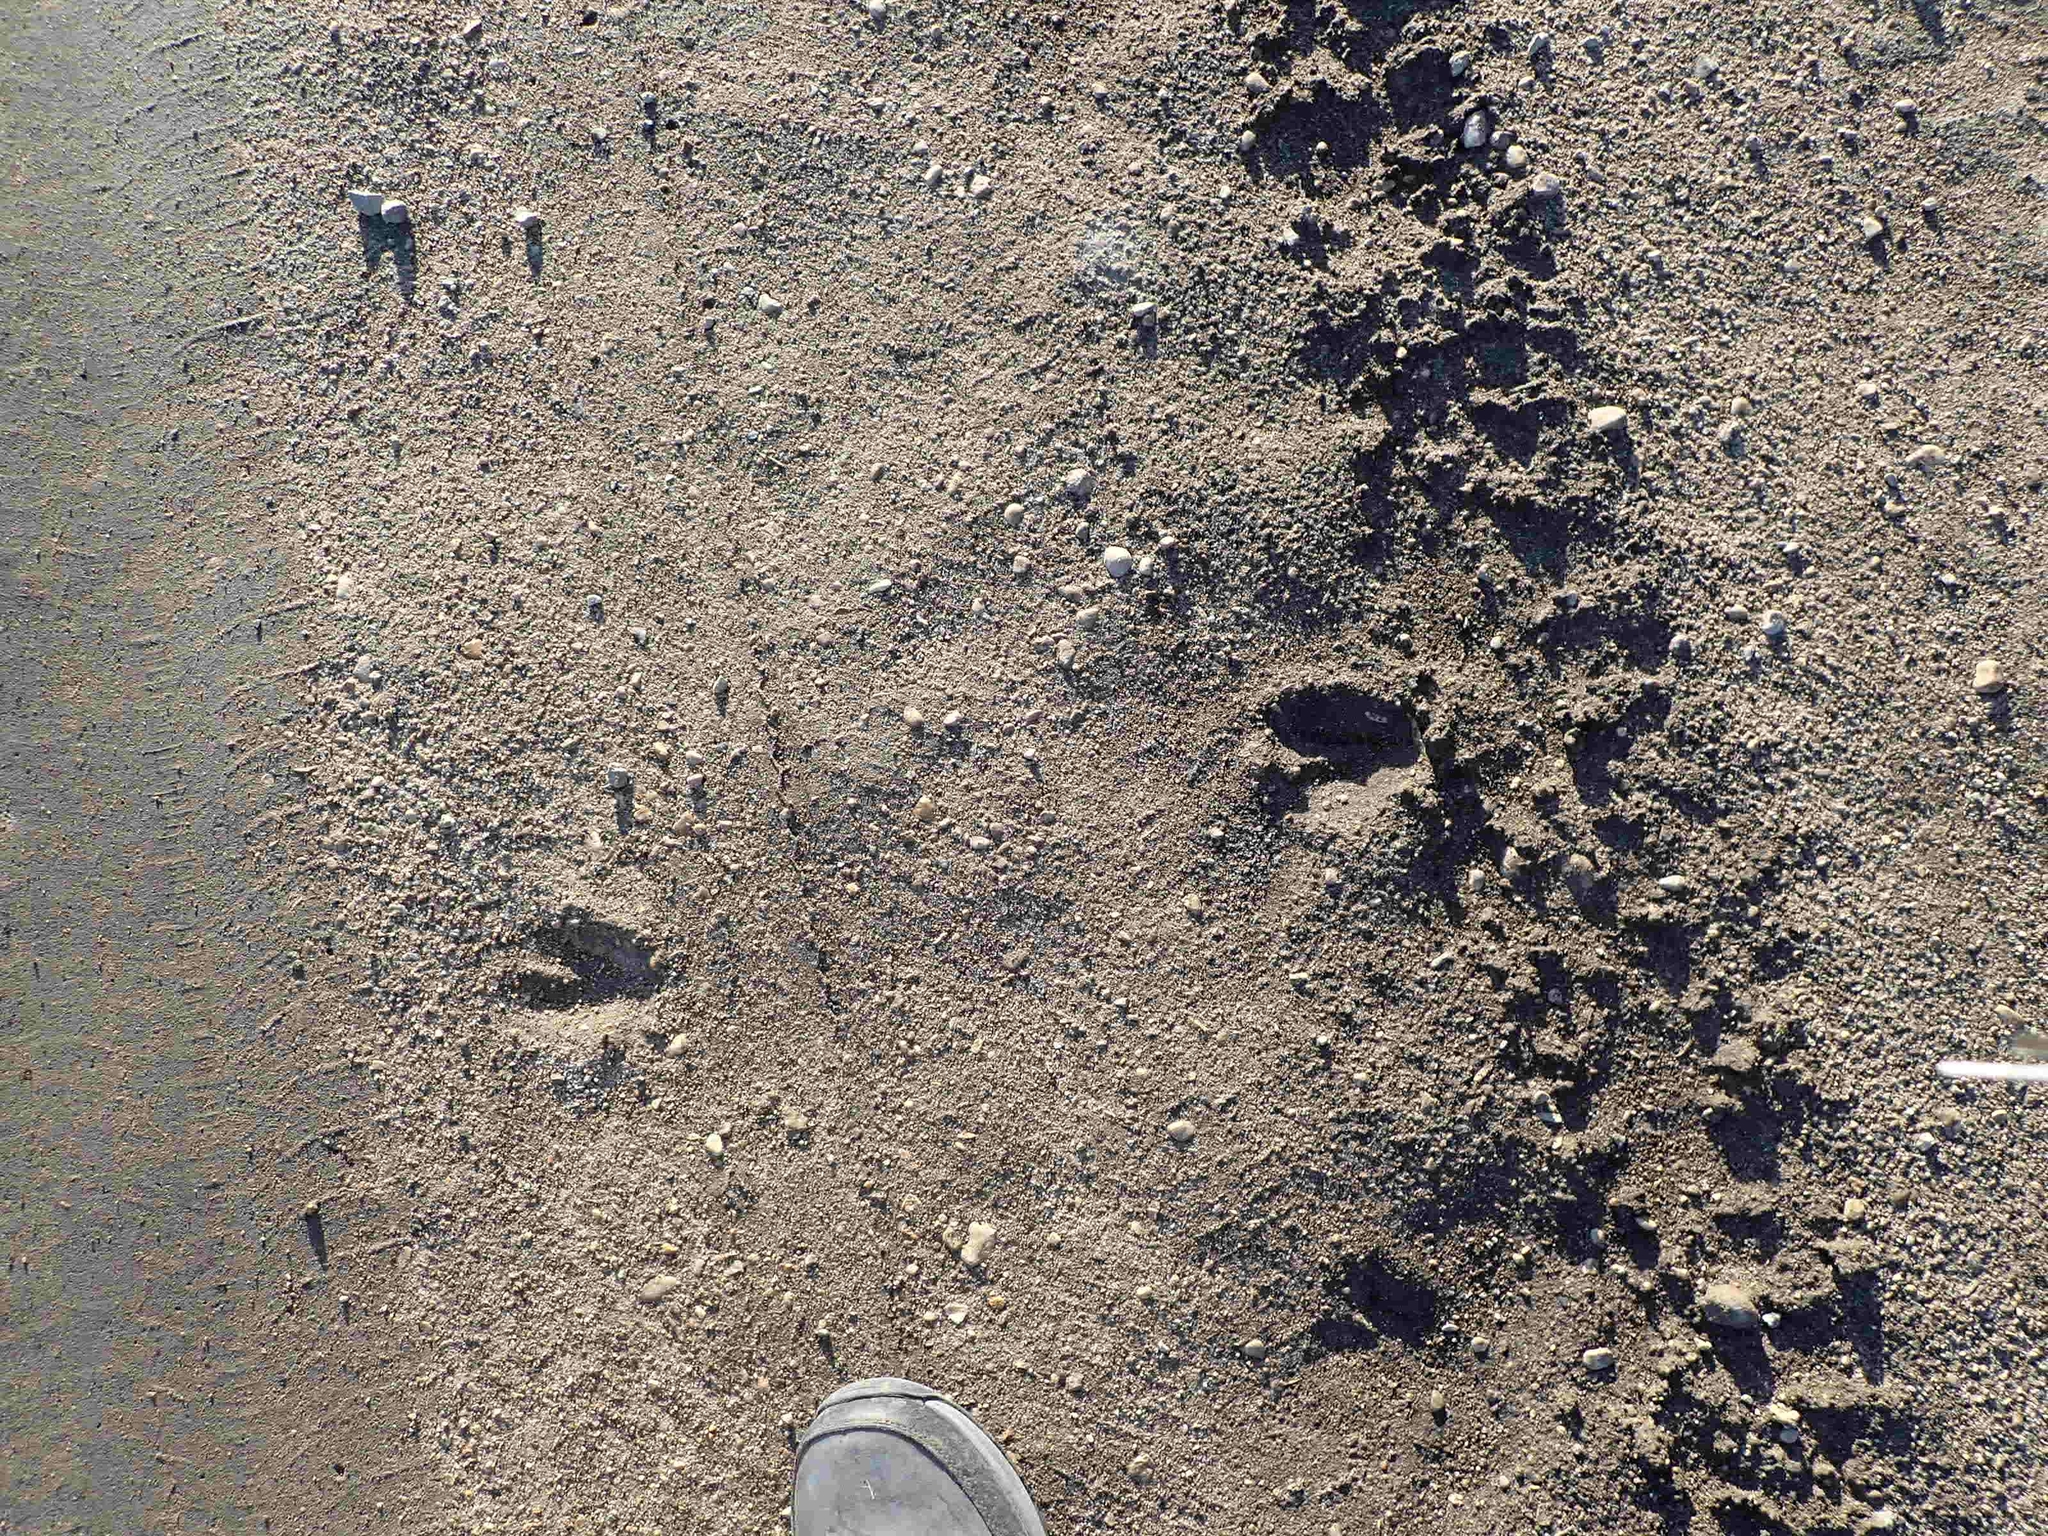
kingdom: Animalia
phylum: Chordata
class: Mammalia
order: Artiodactyla
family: Cervidae
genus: Odocoileus
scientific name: Odocoileus virginianus
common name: White-tailed deer
